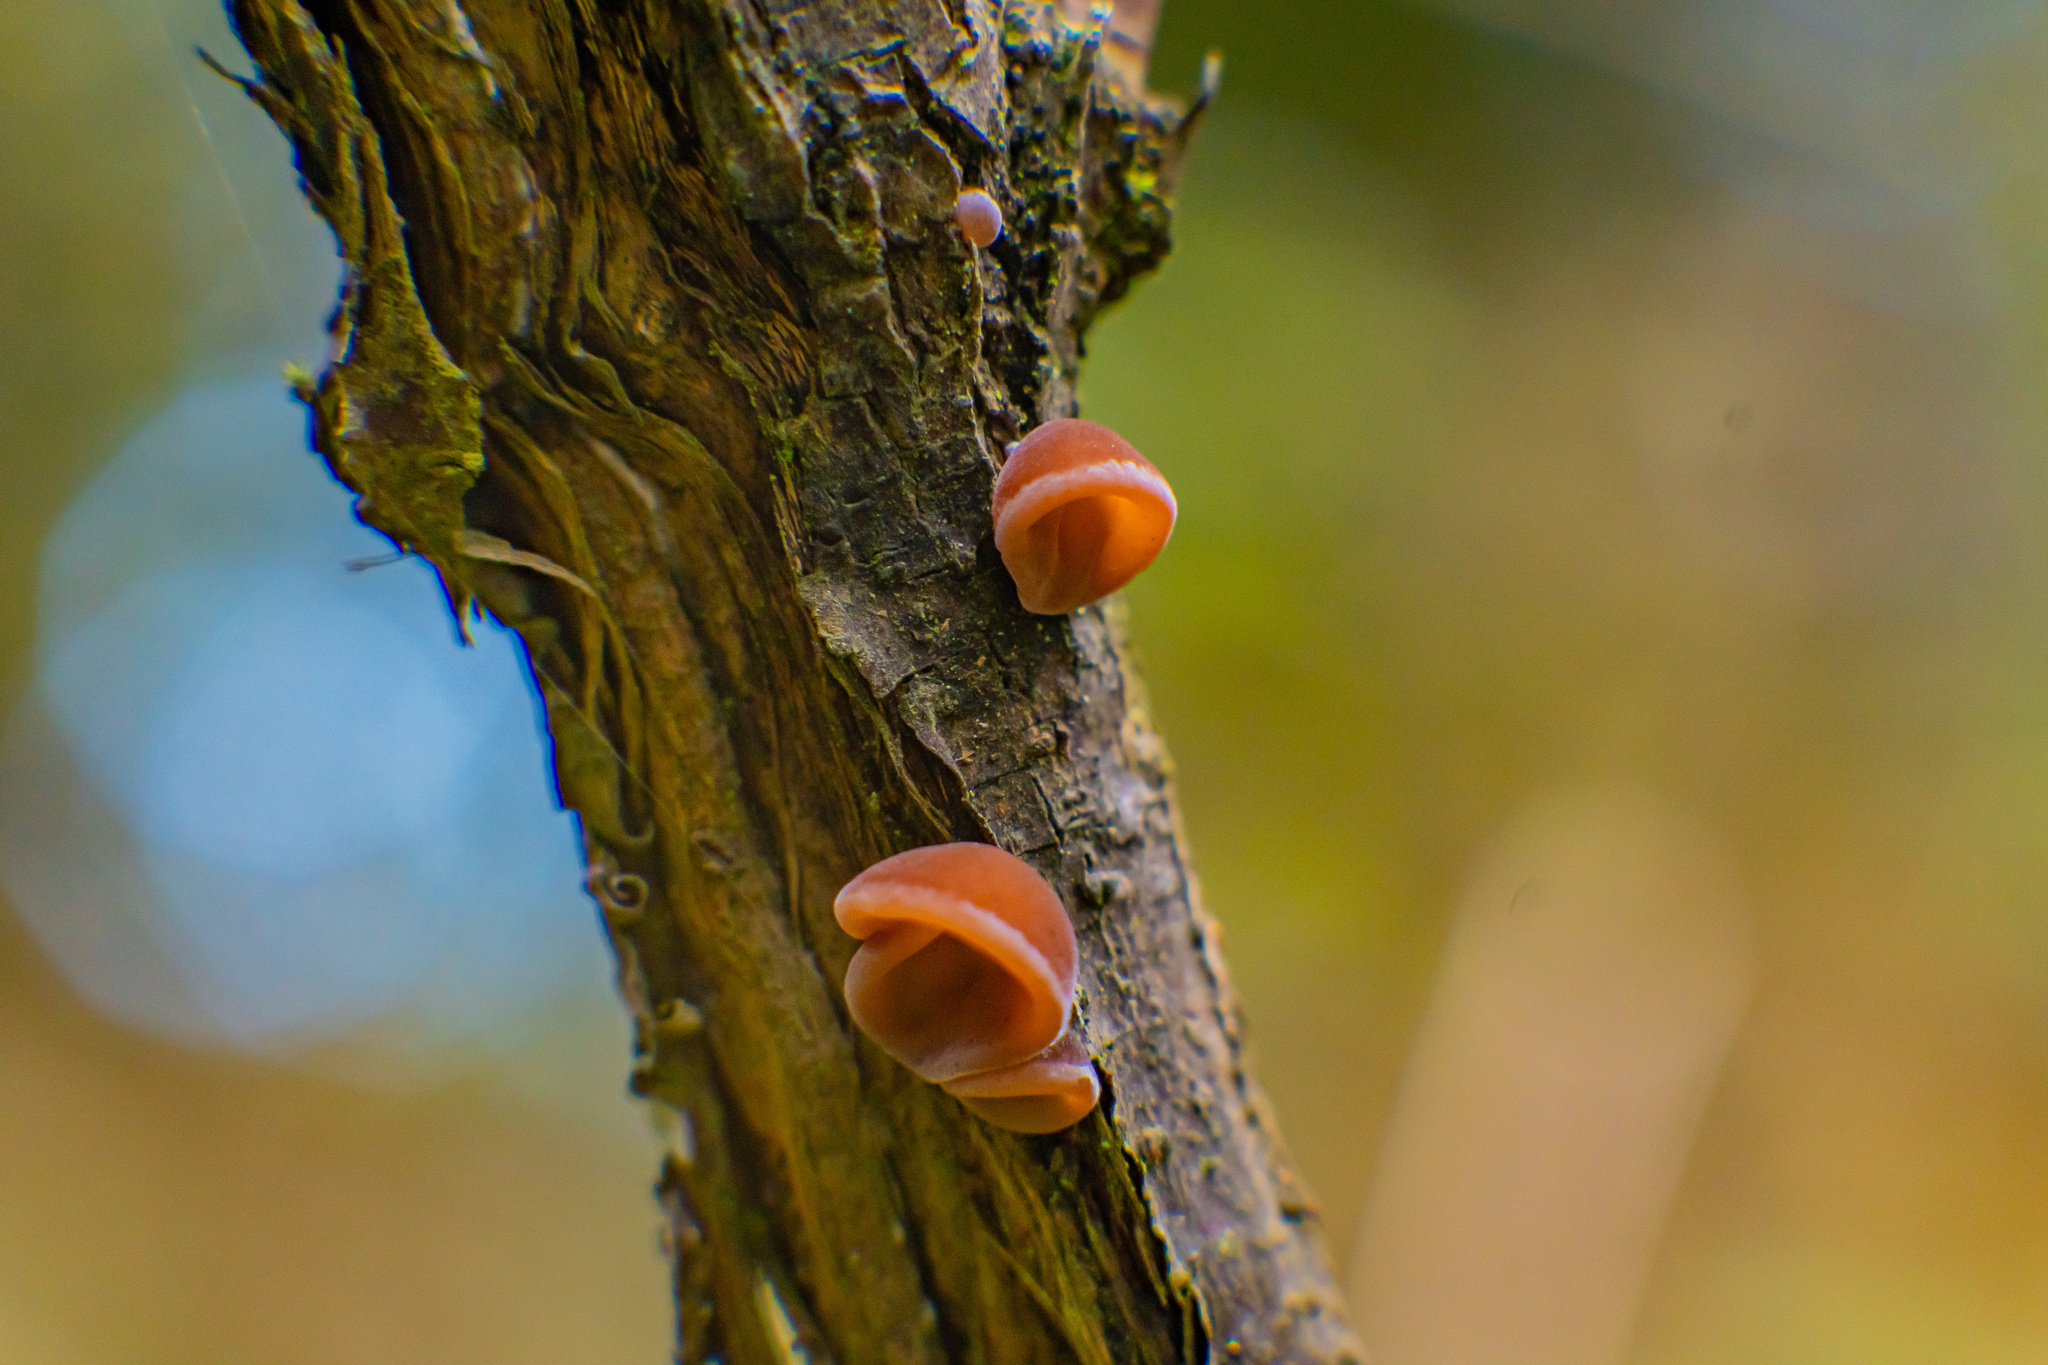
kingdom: Fungi
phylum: Basidiomycota
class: Agaricomycetes
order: Auriculariales
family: Auriculariaceae
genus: Auricularia
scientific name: Auricularia auricula-judae
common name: Jelly ear
